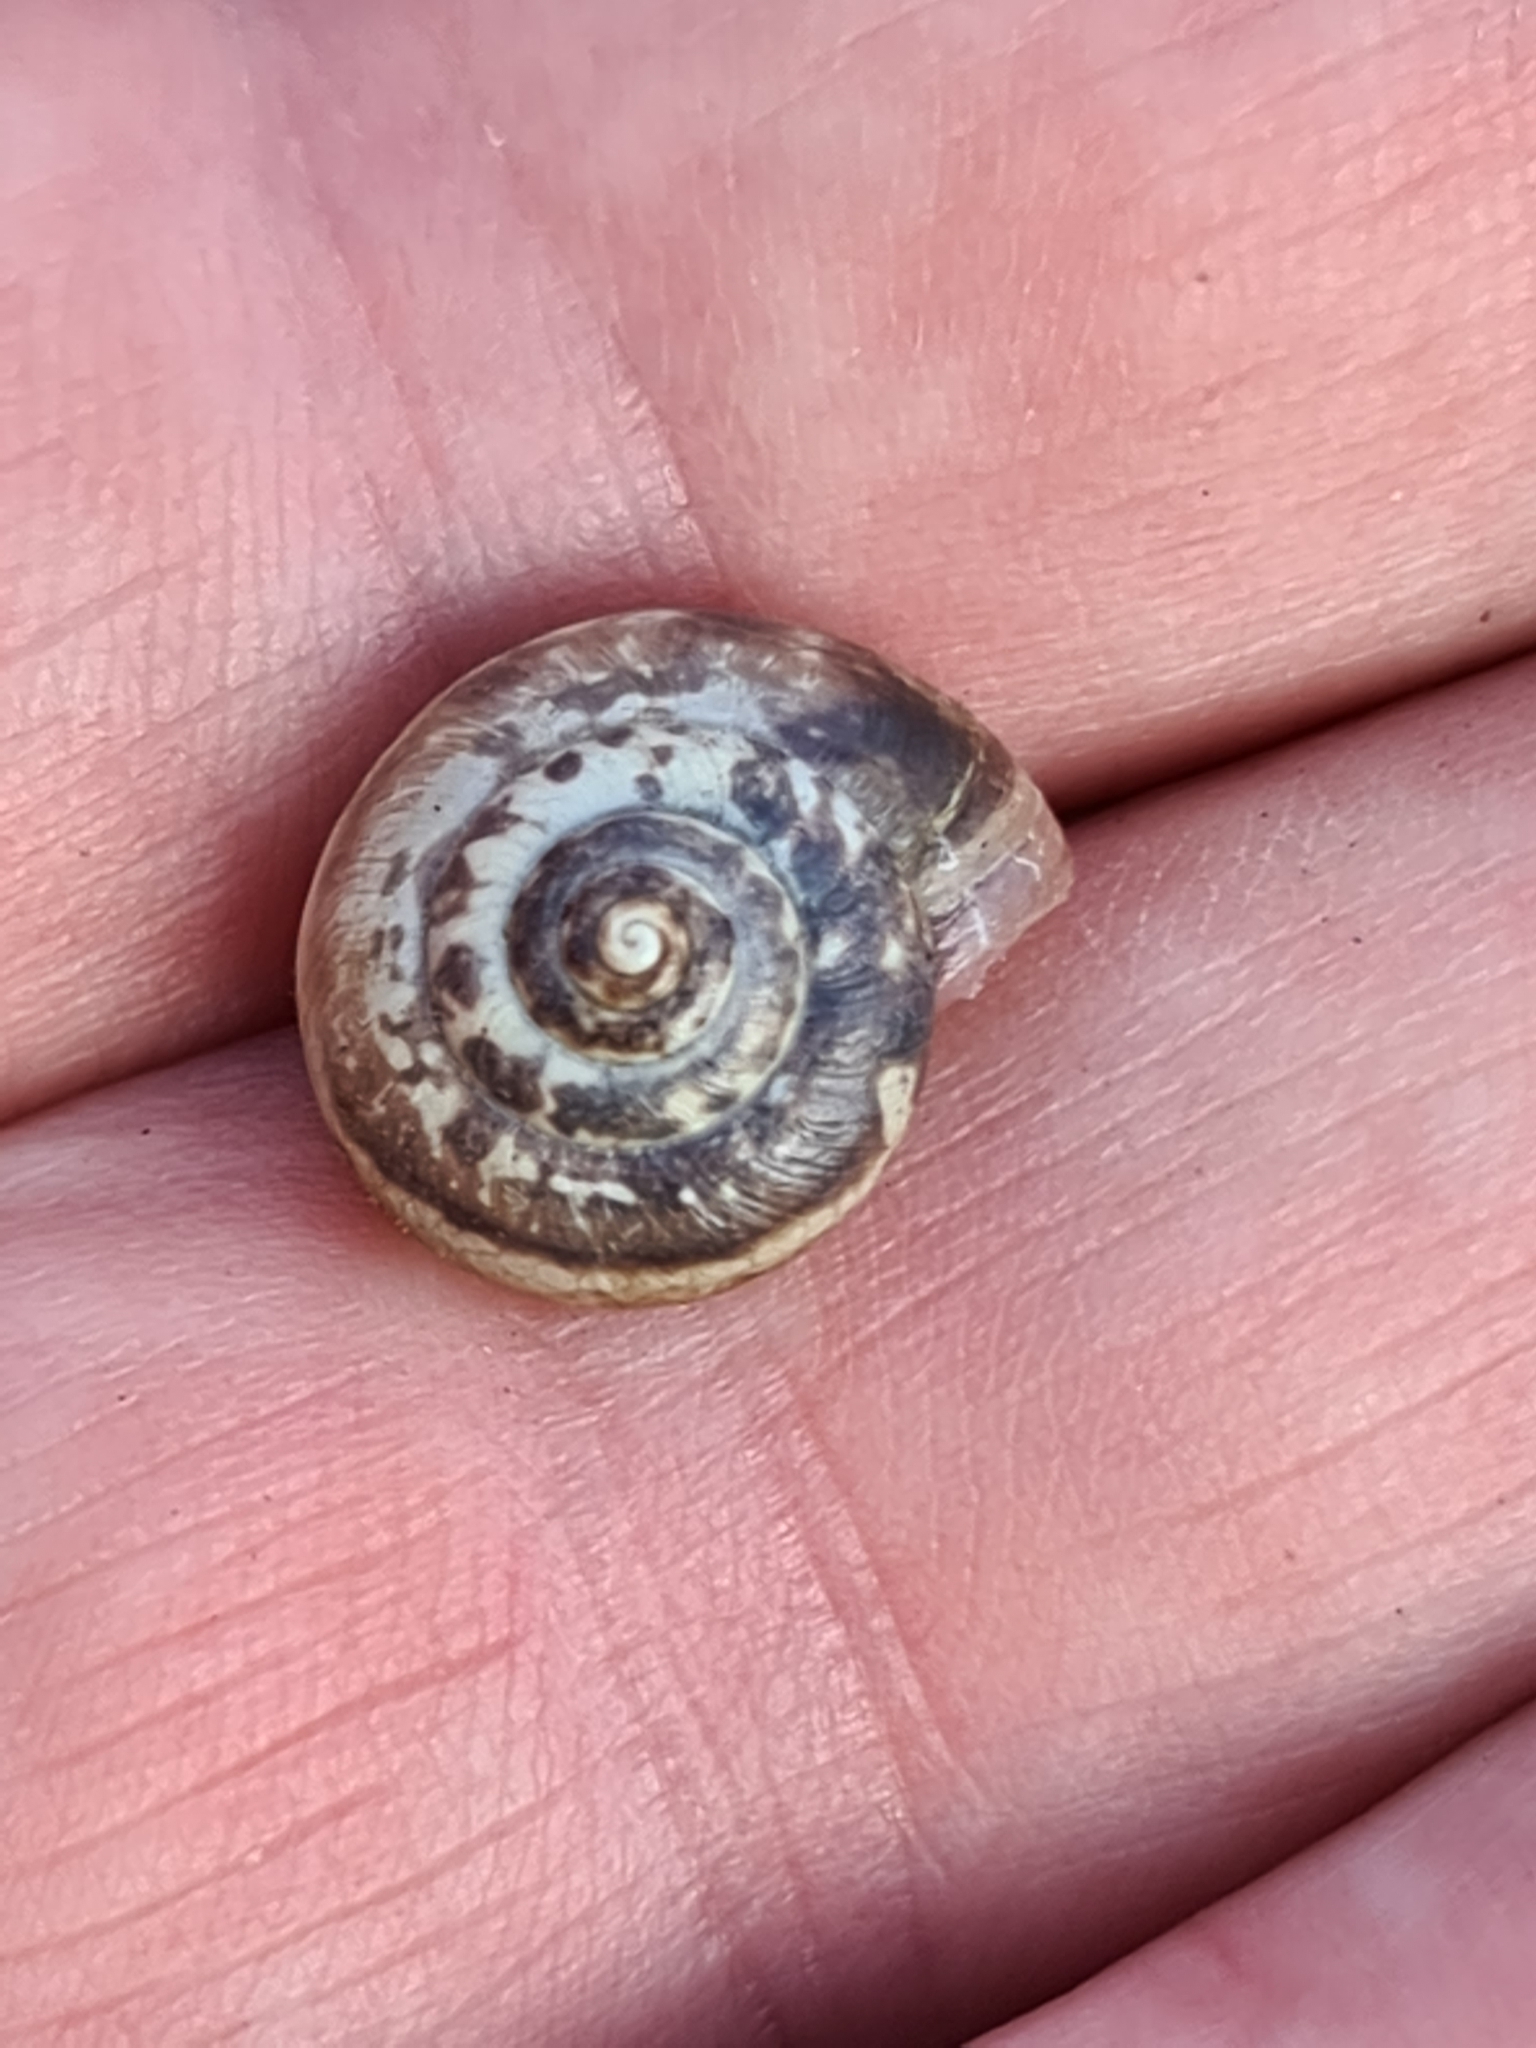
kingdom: Animalia
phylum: Mollusca
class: Gastropoda
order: Stylommatophora
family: Hygromiidae
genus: Monacha
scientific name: Monacha cantiana
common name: Kentish snail
